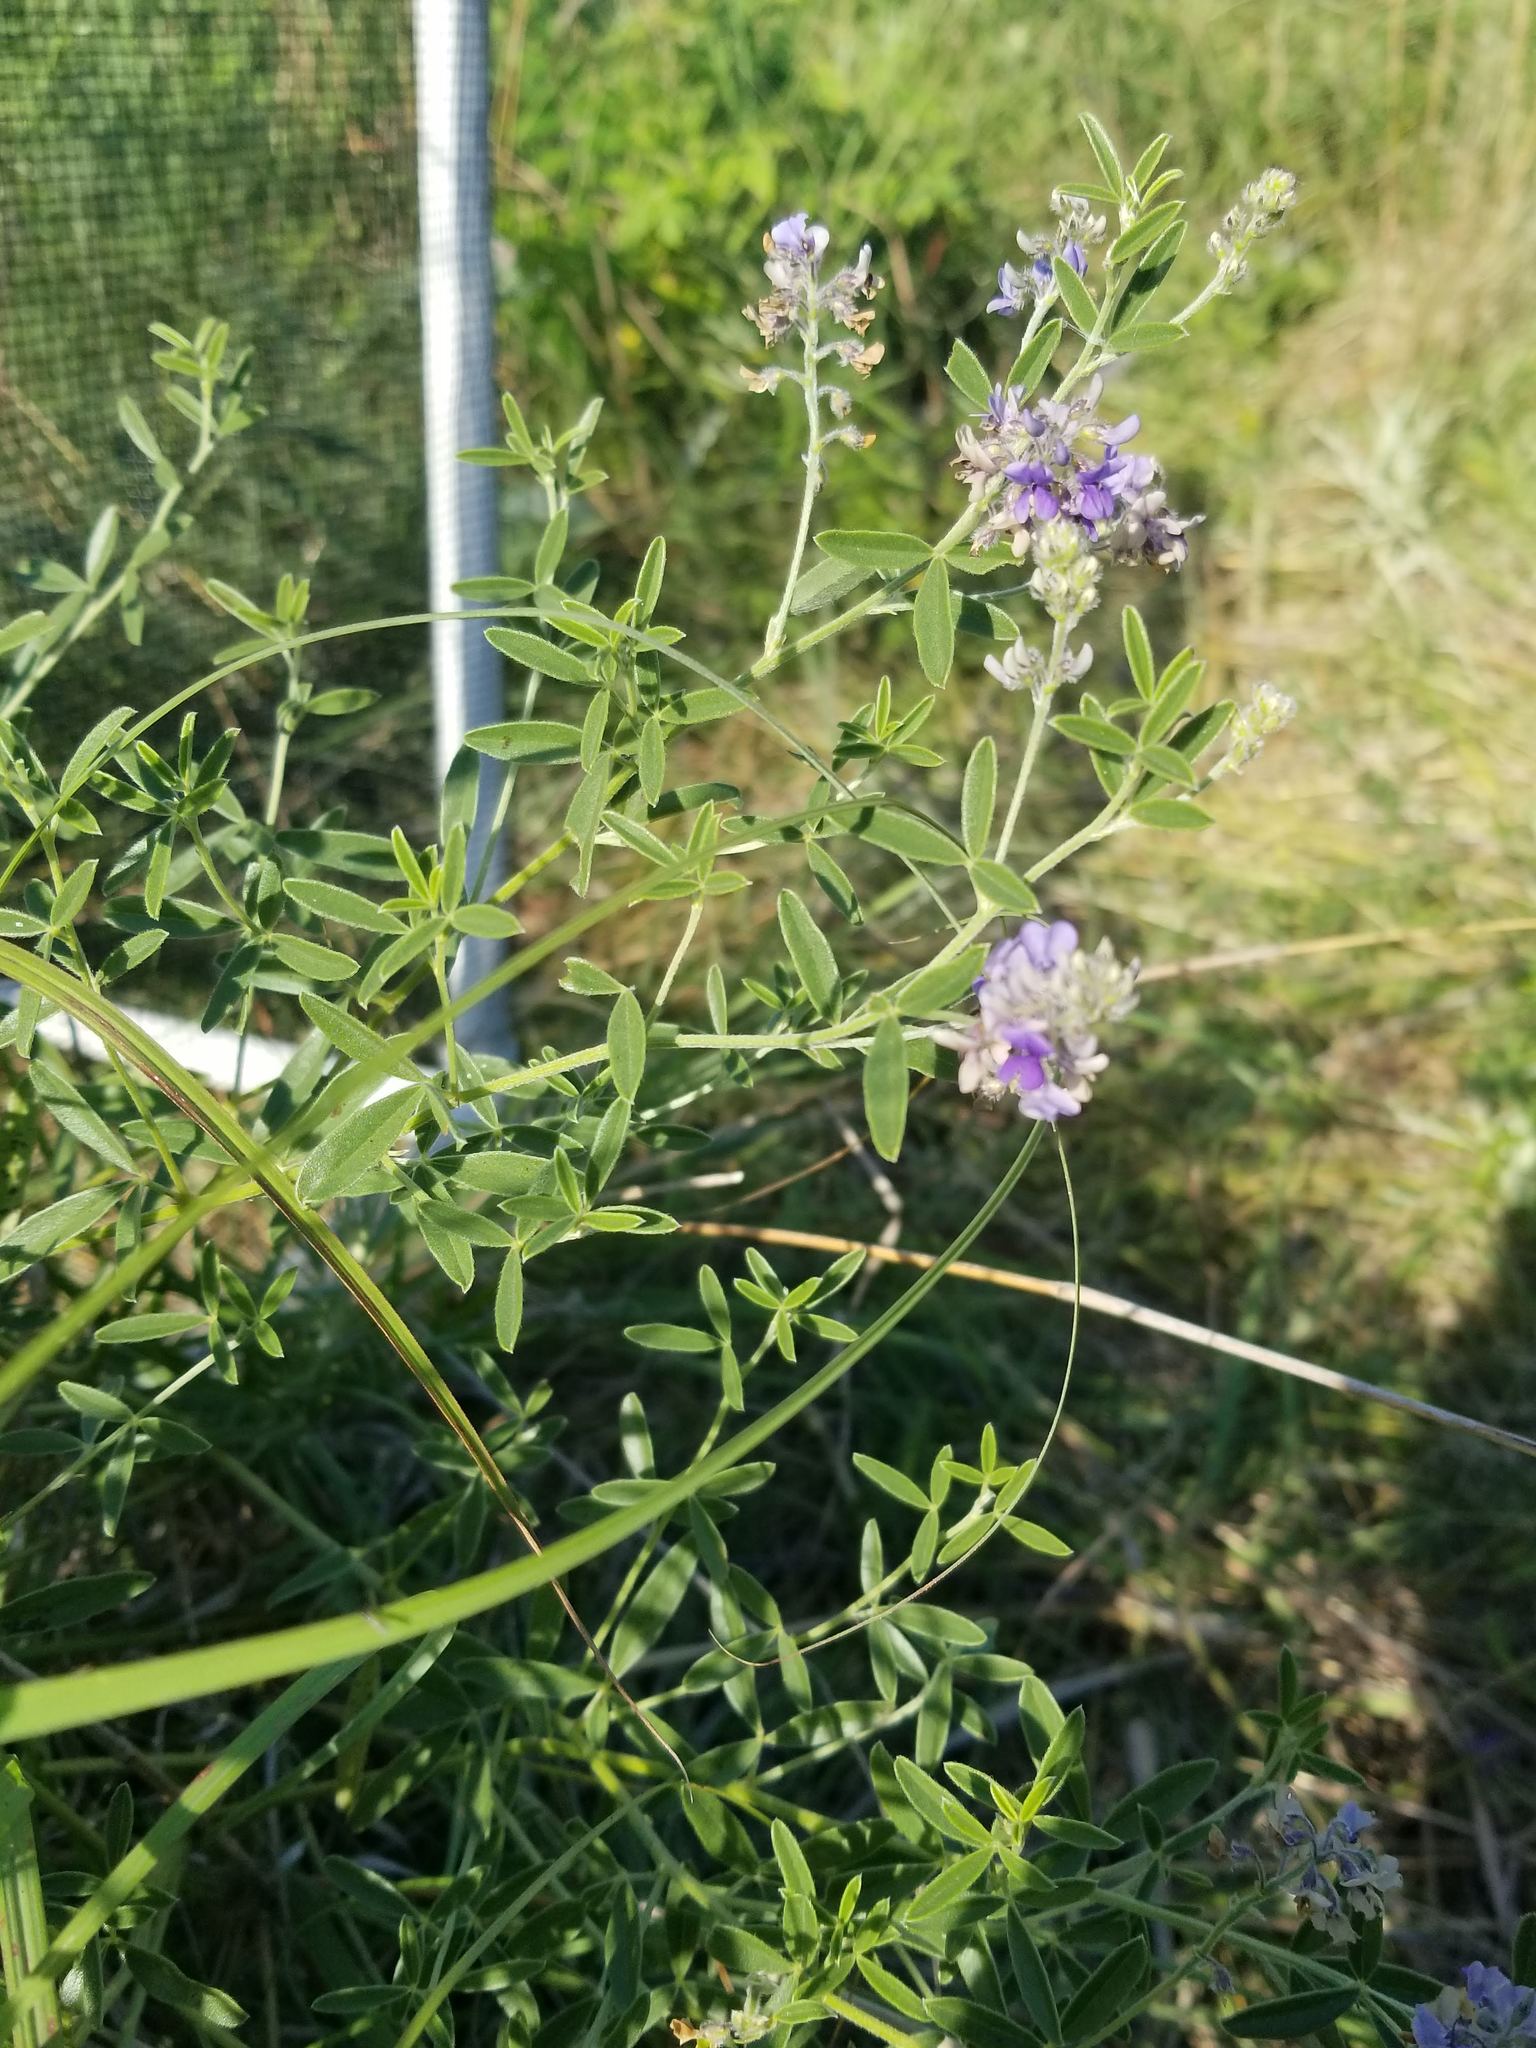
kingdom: Plantae
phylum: Tracheophyta
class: Magnoliopsida
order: Fabales
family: Fabaceae
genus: Pediomelum
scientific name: Pediomelum tenuiflorum
